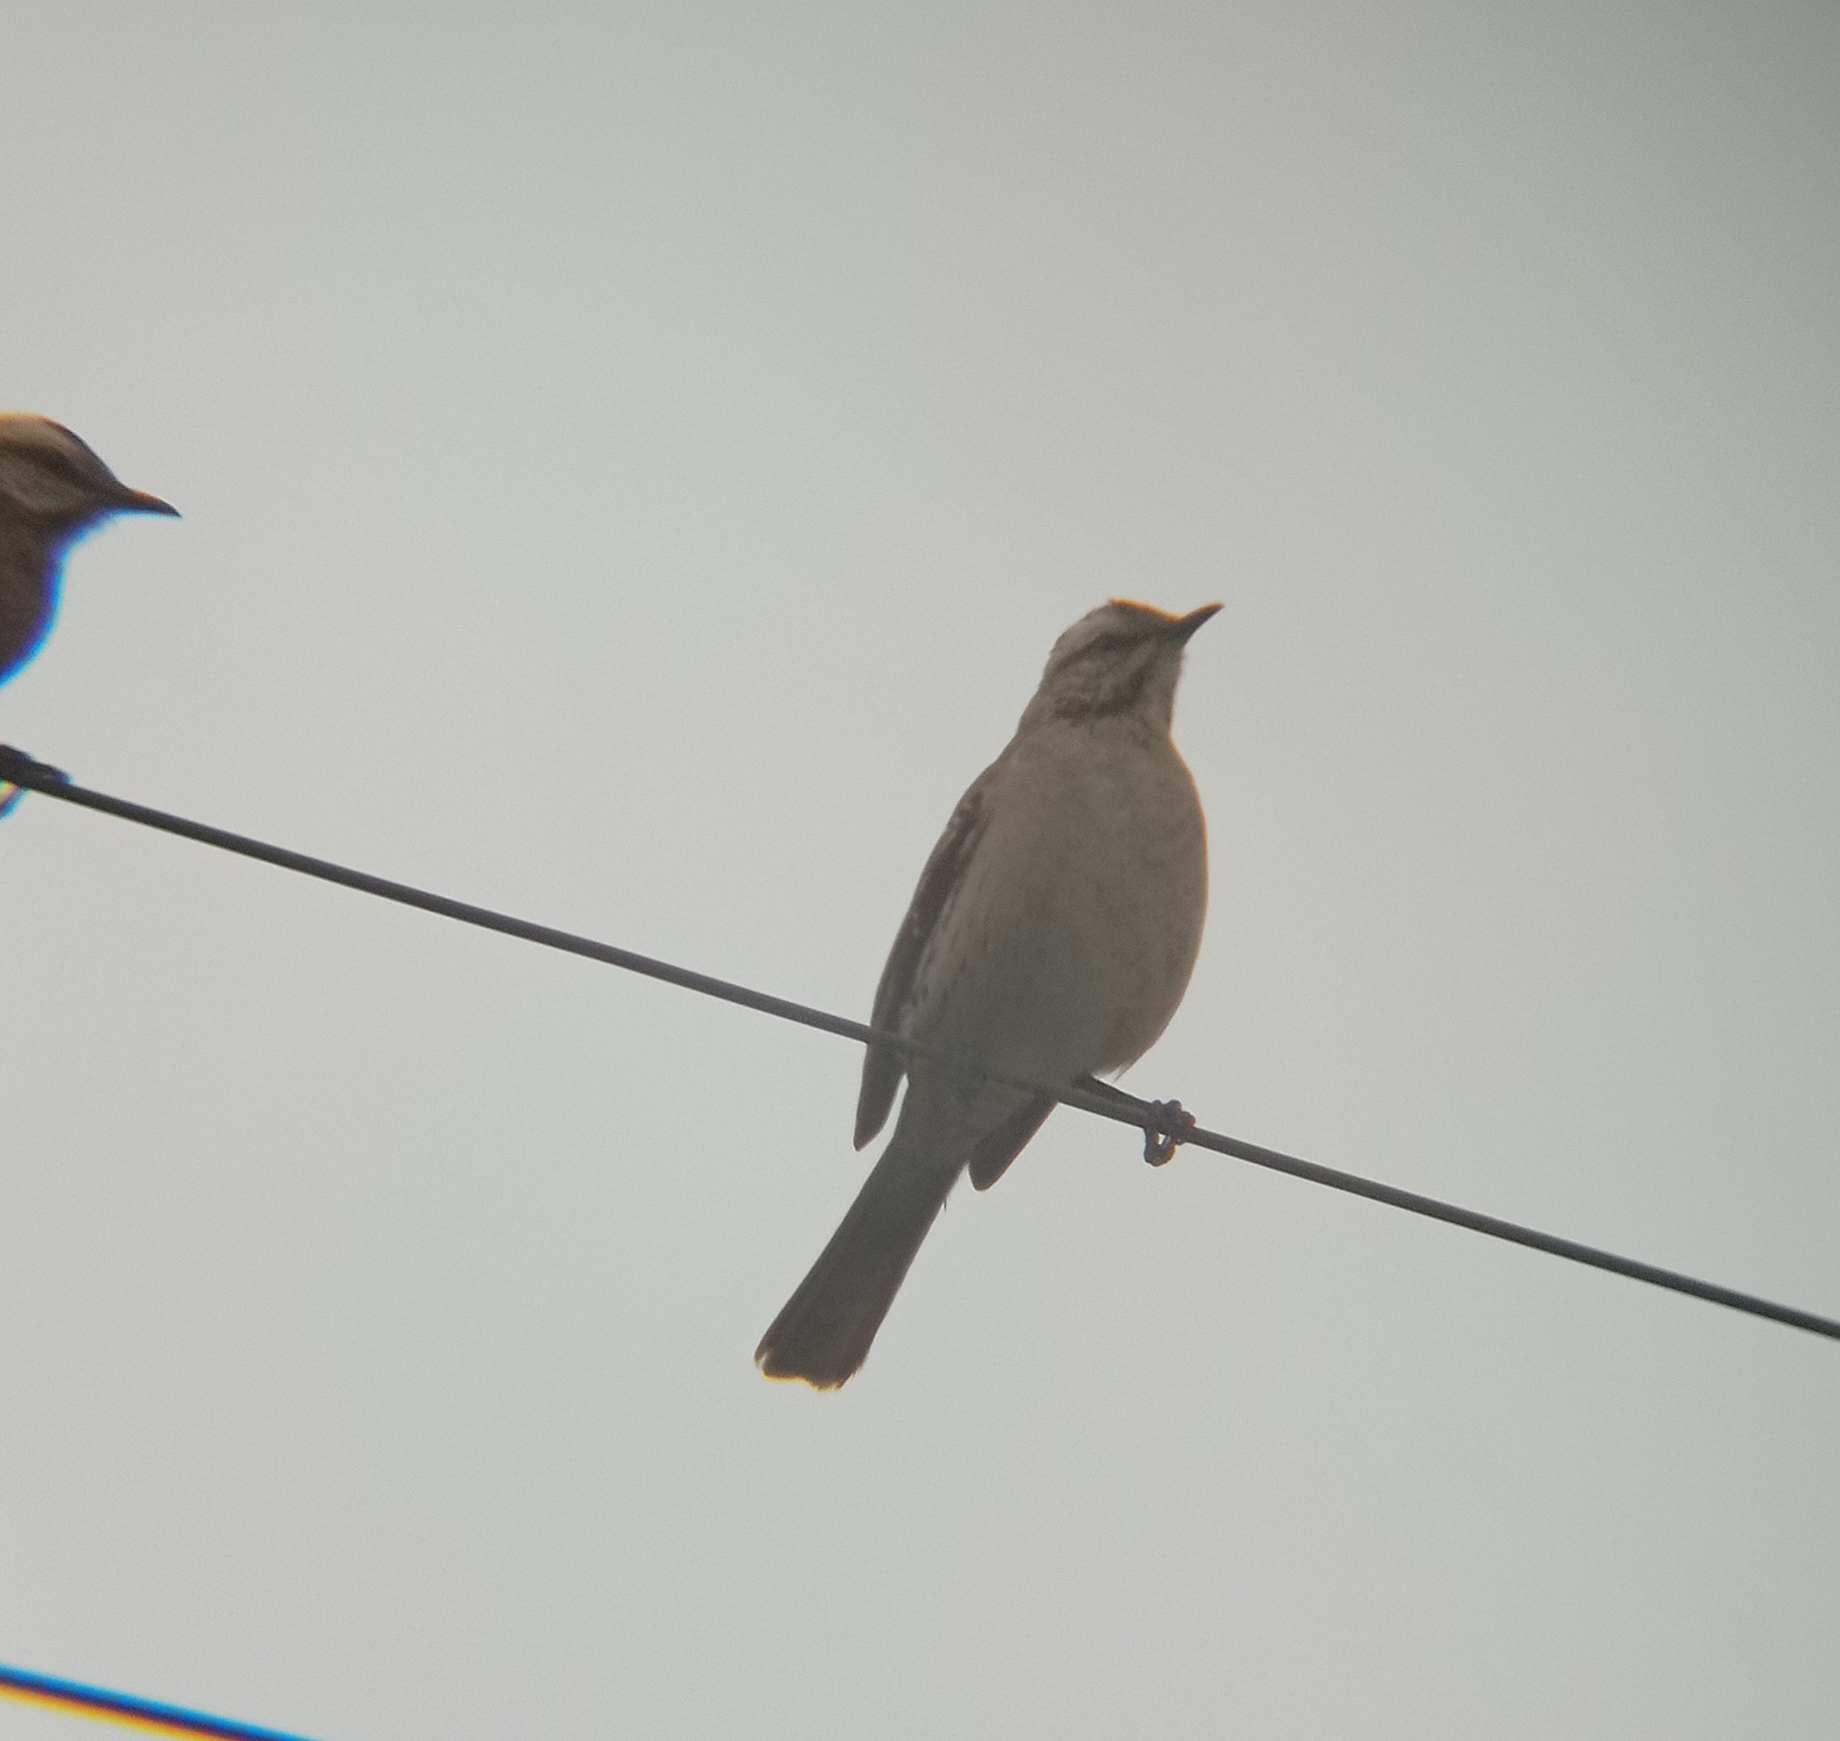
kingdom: Animalia
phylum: Chordata
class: Aves
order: Passeriformes
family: Mimidae
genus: Mimus
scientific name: Mimus thenca
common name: Chilean mockingbird
